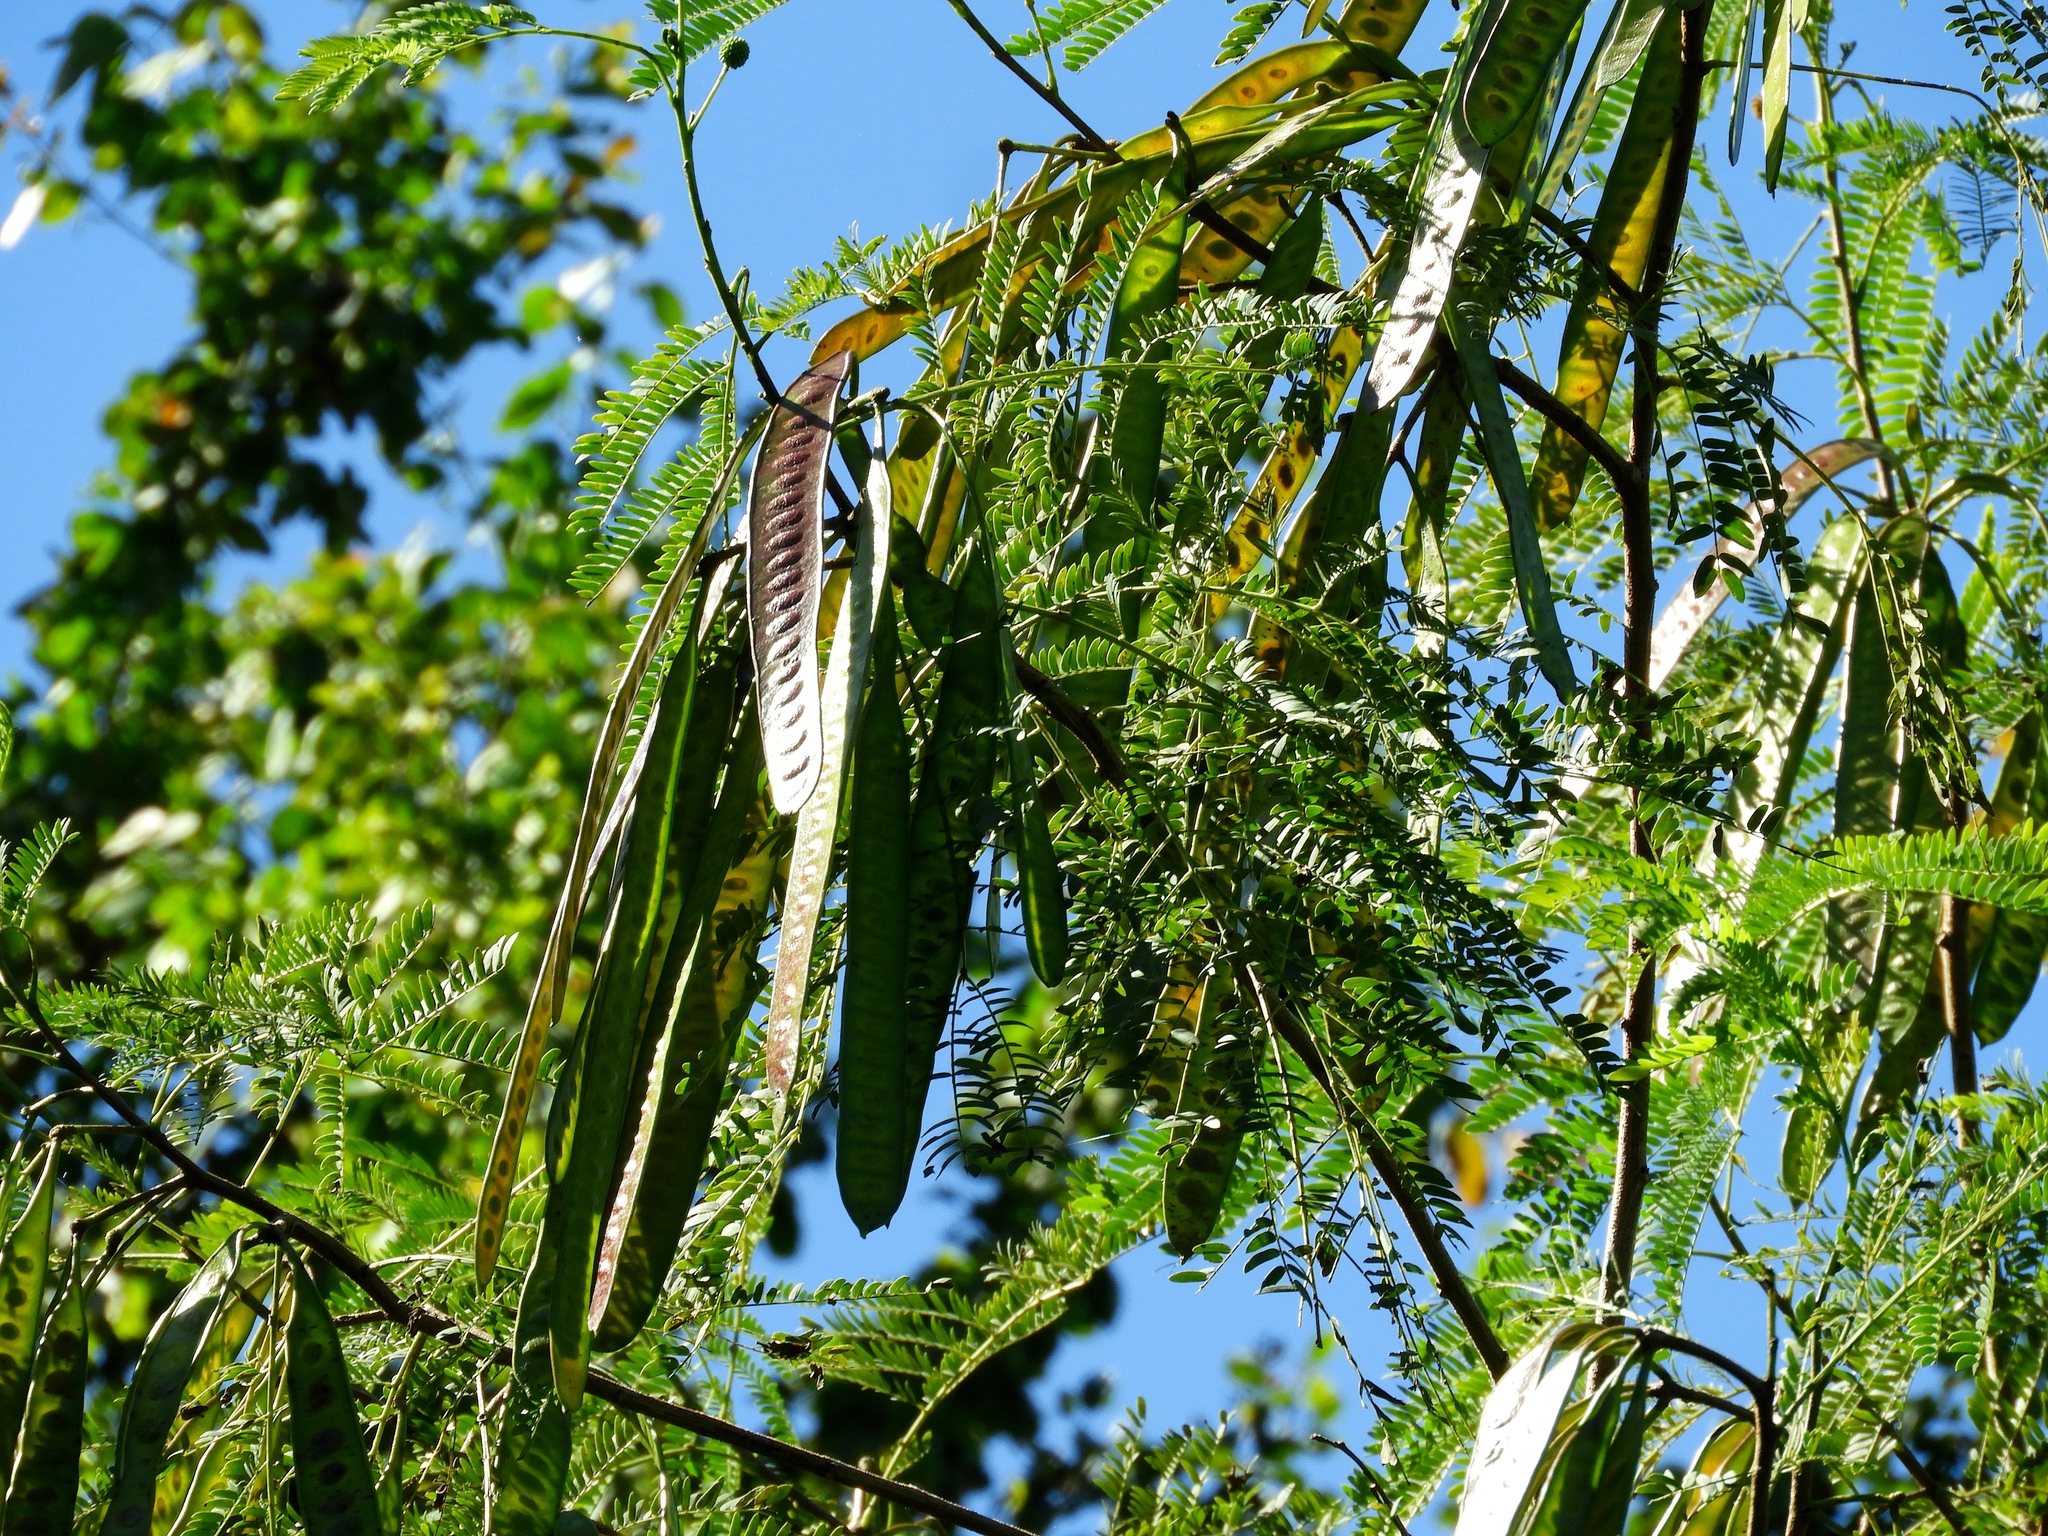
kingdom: Plantae
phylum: Tracheophyta
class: Magnoliopsida
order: Fabales
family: Fabaceae
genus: Leucaena
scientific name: Leucaena leucocephala
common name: White leadtree
